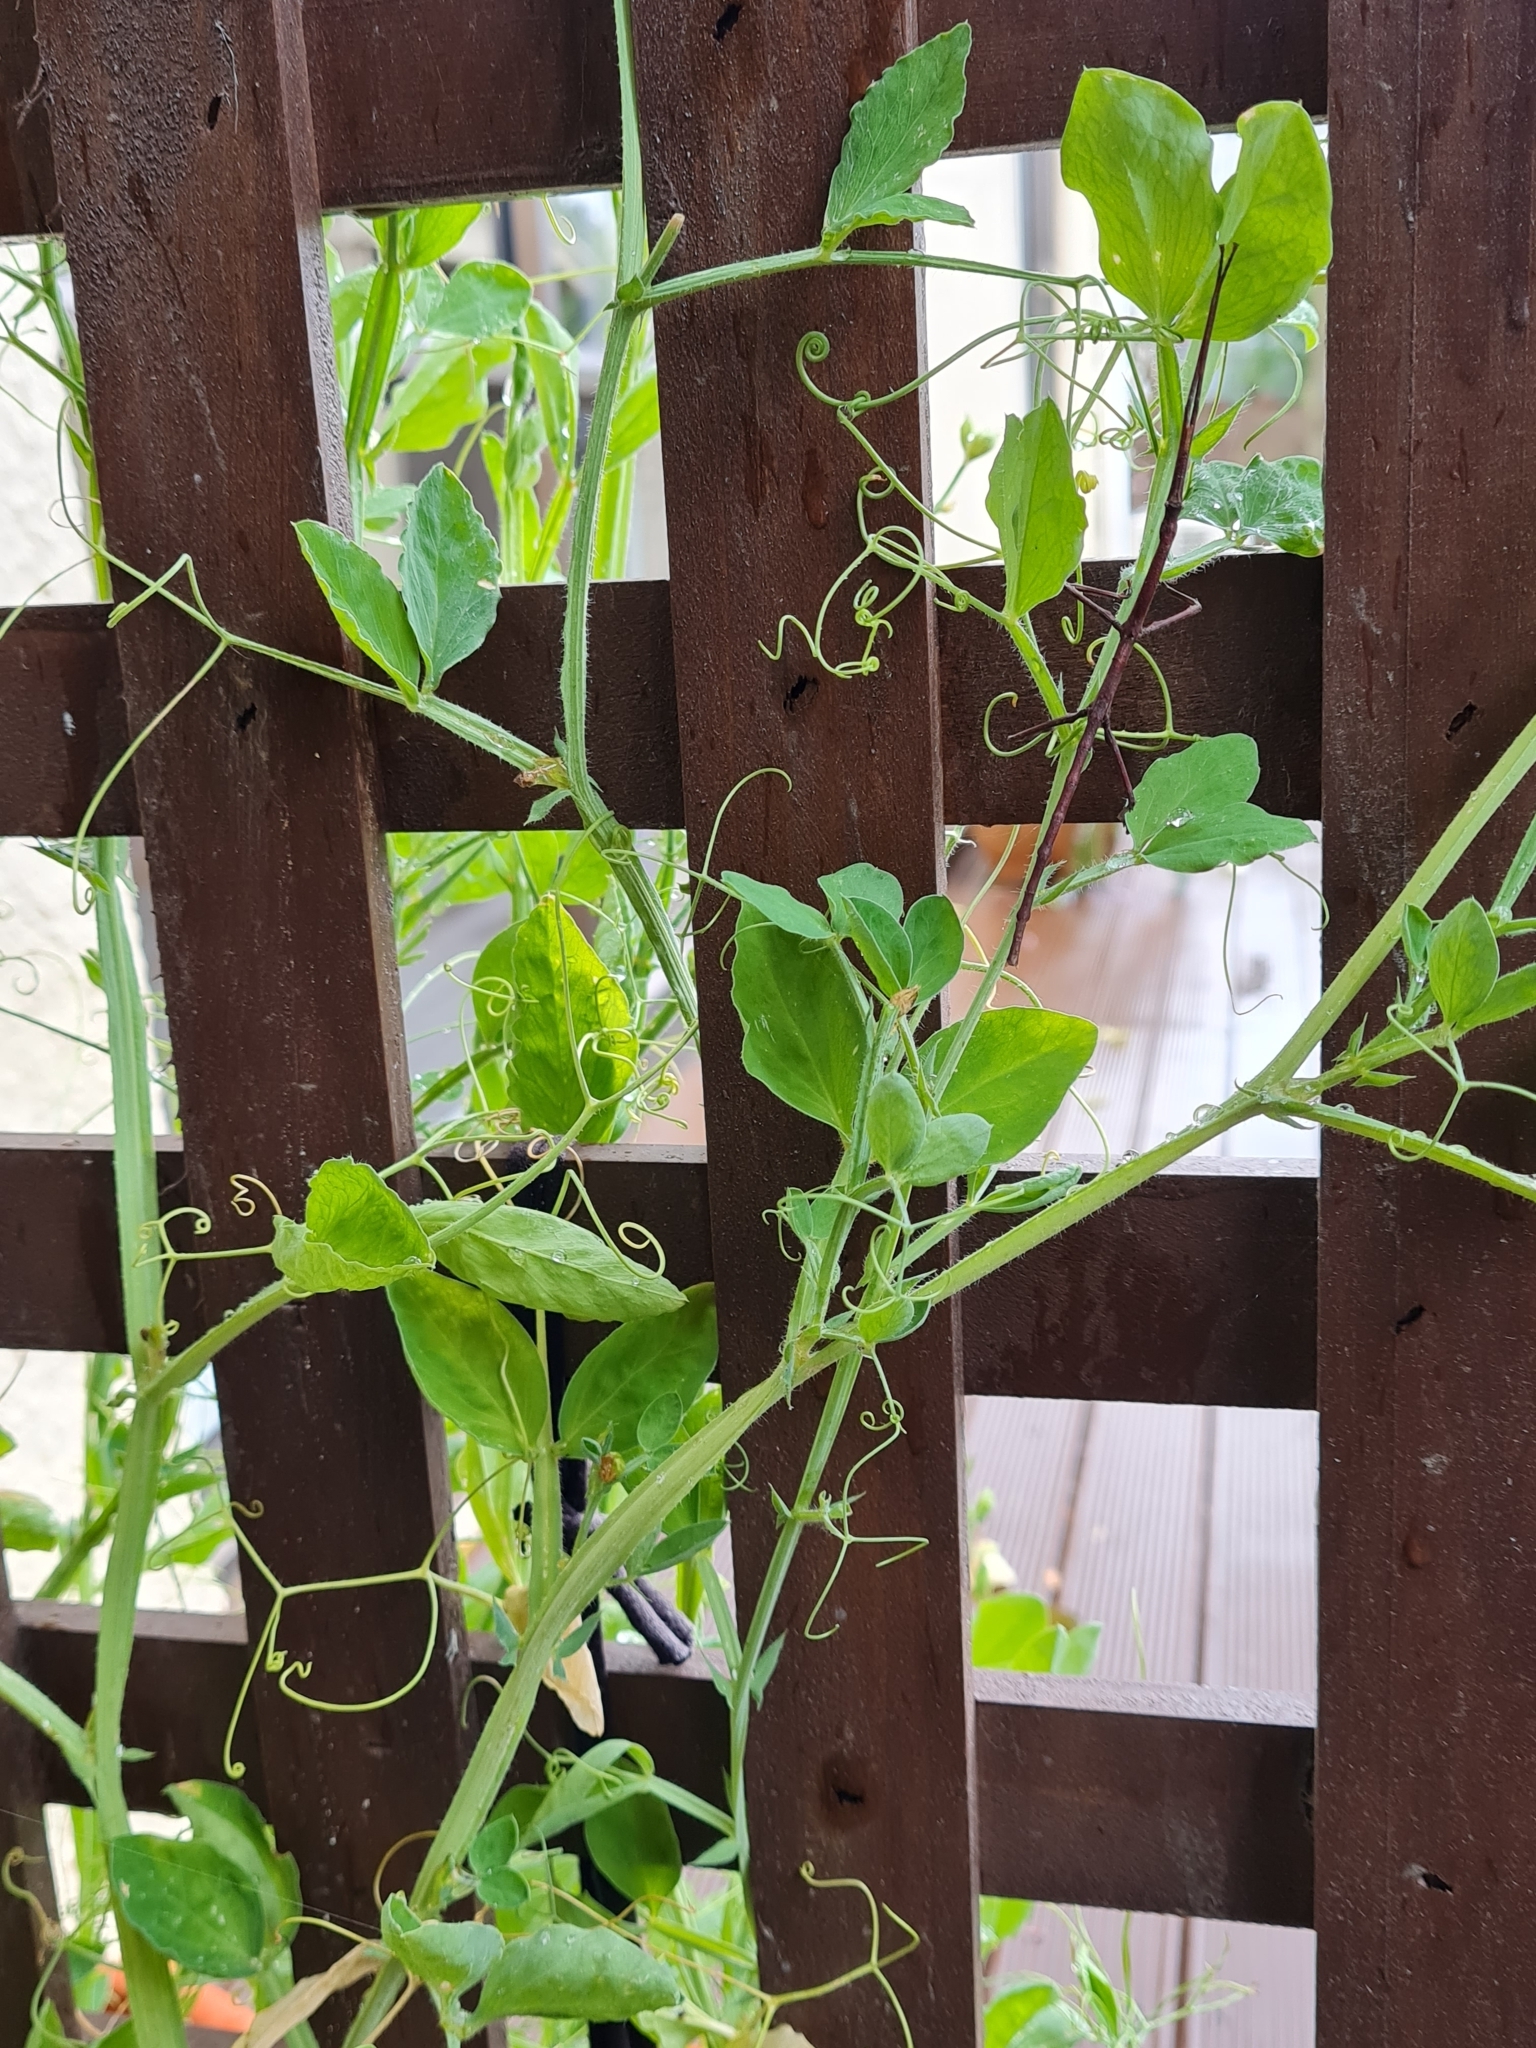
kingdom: Animalia
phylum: Arthropoda
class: Insecta
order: Phasmida
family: Phasmatidae
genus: Argosarchus
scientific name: Argosarchus horridus
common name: Bristly stick insect
